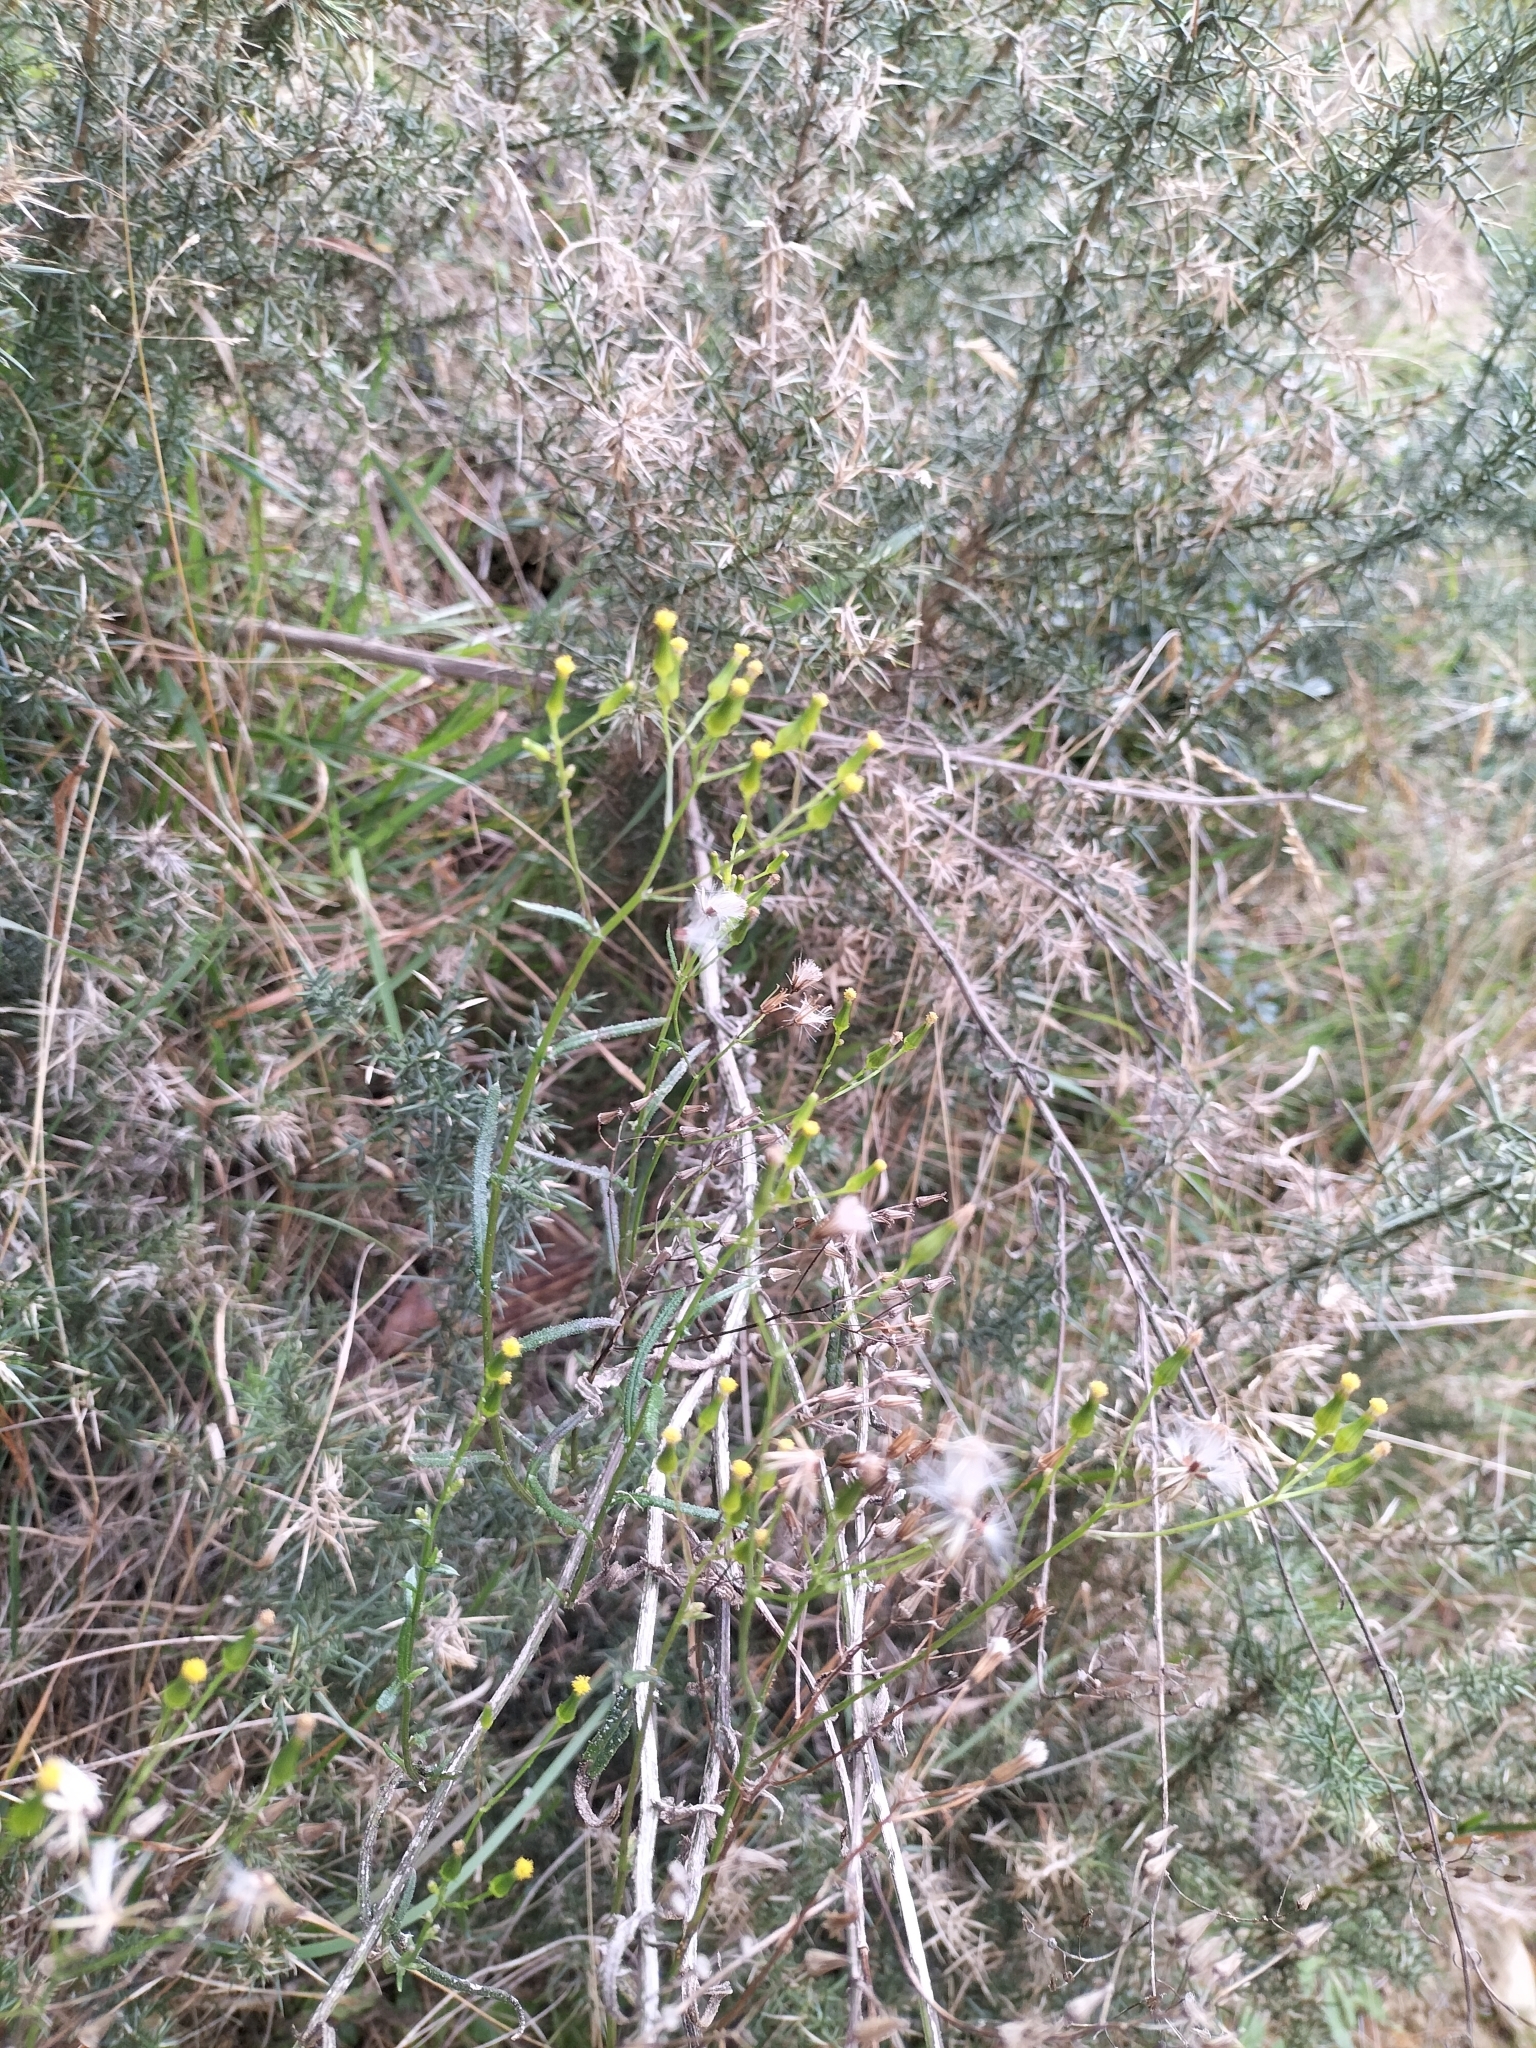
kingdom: Plantae
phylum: Tracheophyta
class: Magnoliopsida
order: Asterales
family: Asteraceae
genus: Senecio
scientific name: Senecio hispidulus
